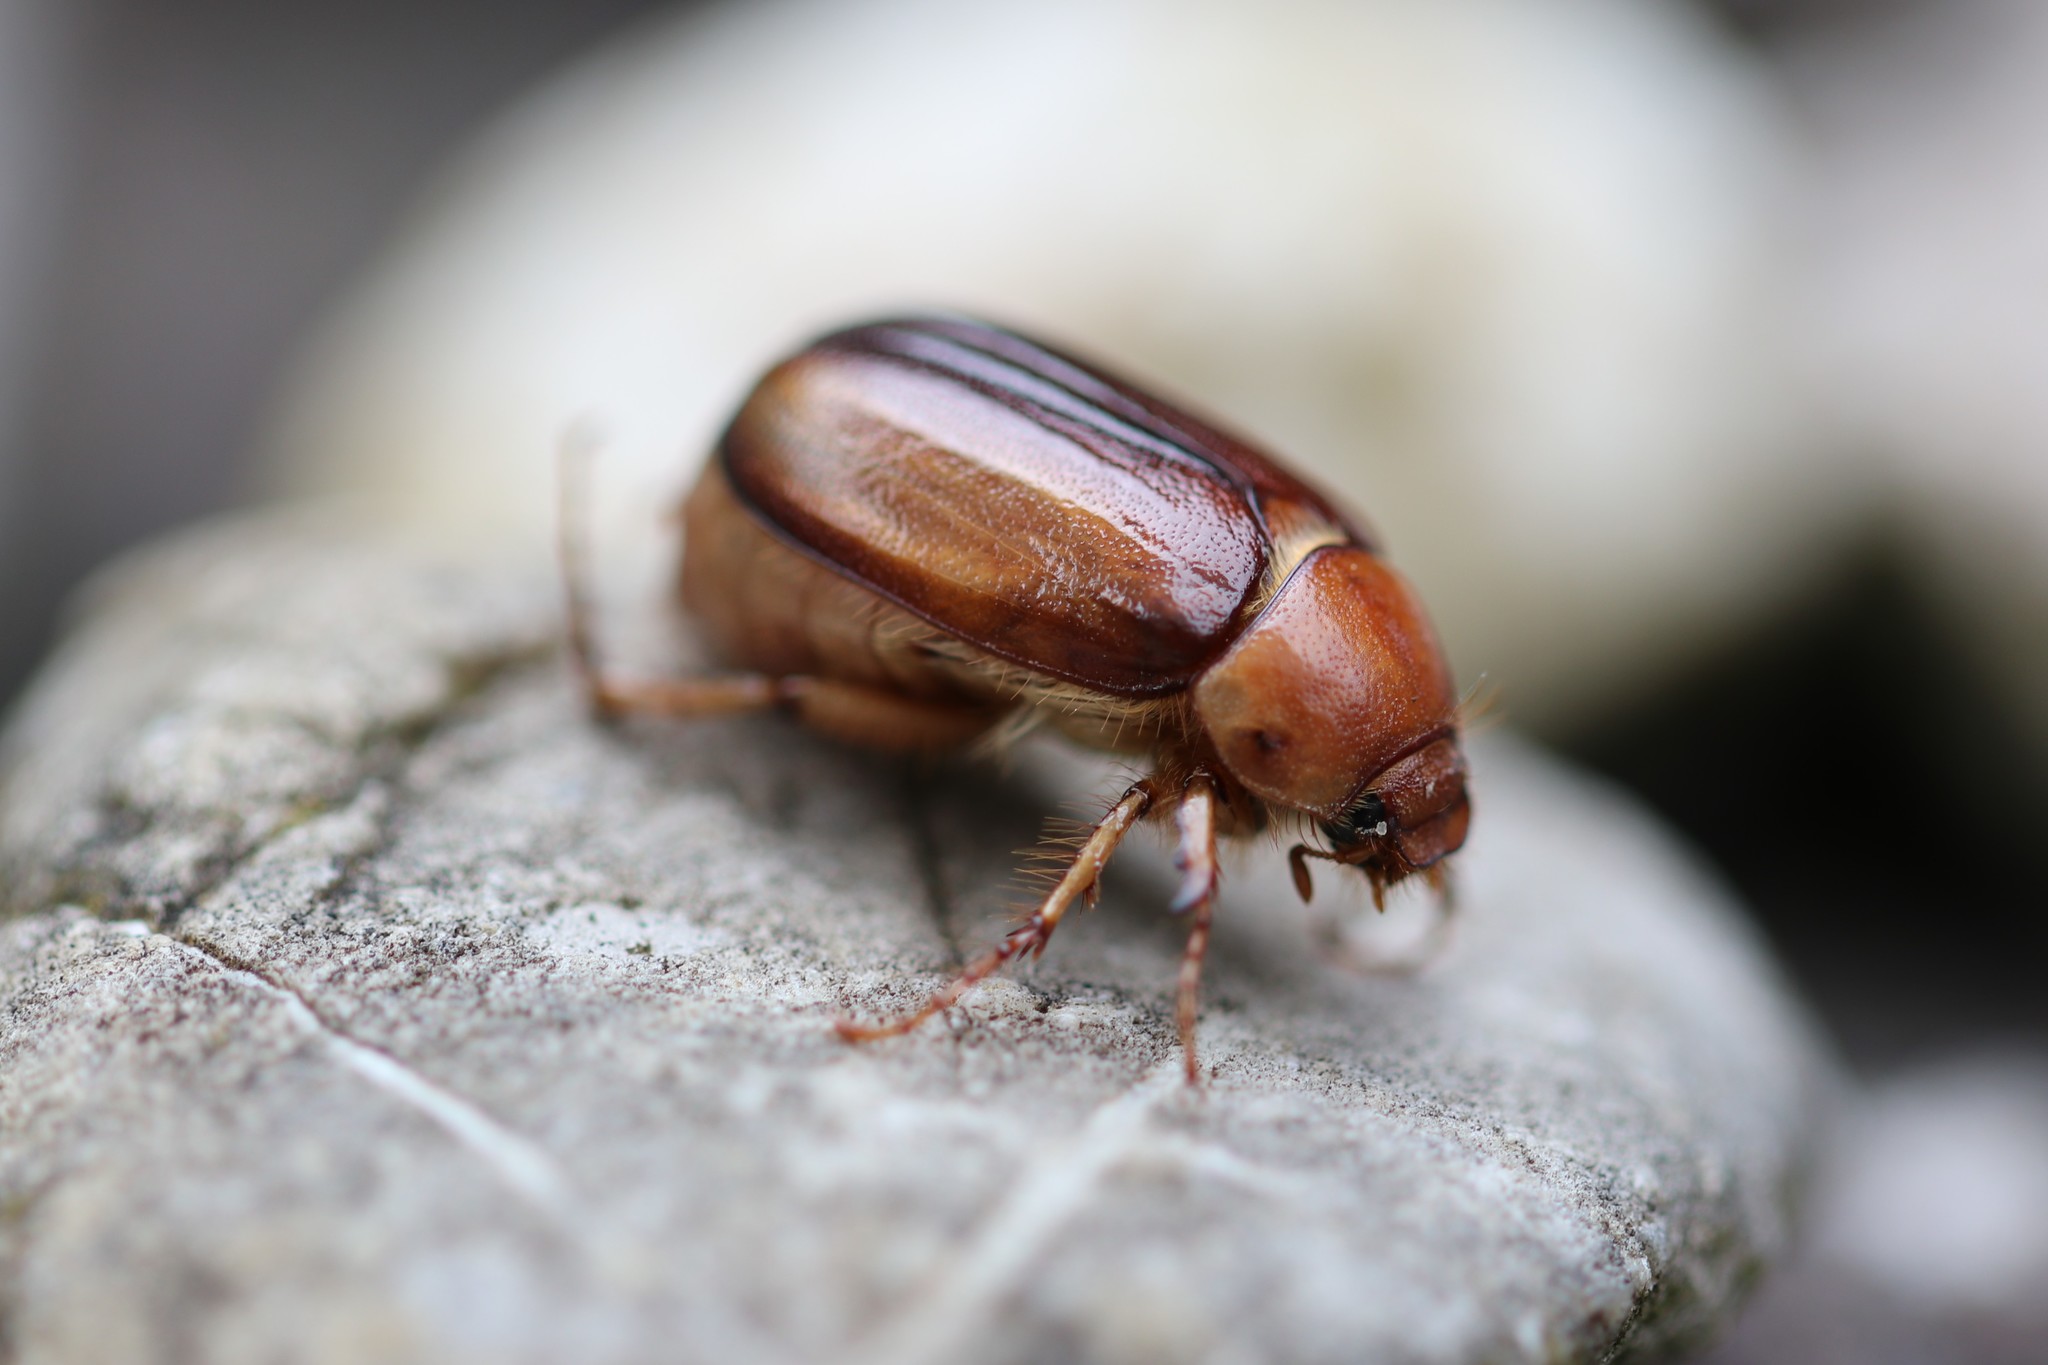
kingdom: Animalia
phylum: Arthropoda
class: Insecta
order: Coleoptera
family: Scarabaeidae
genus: Rhizotrogus
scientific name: Rhizotrogus
